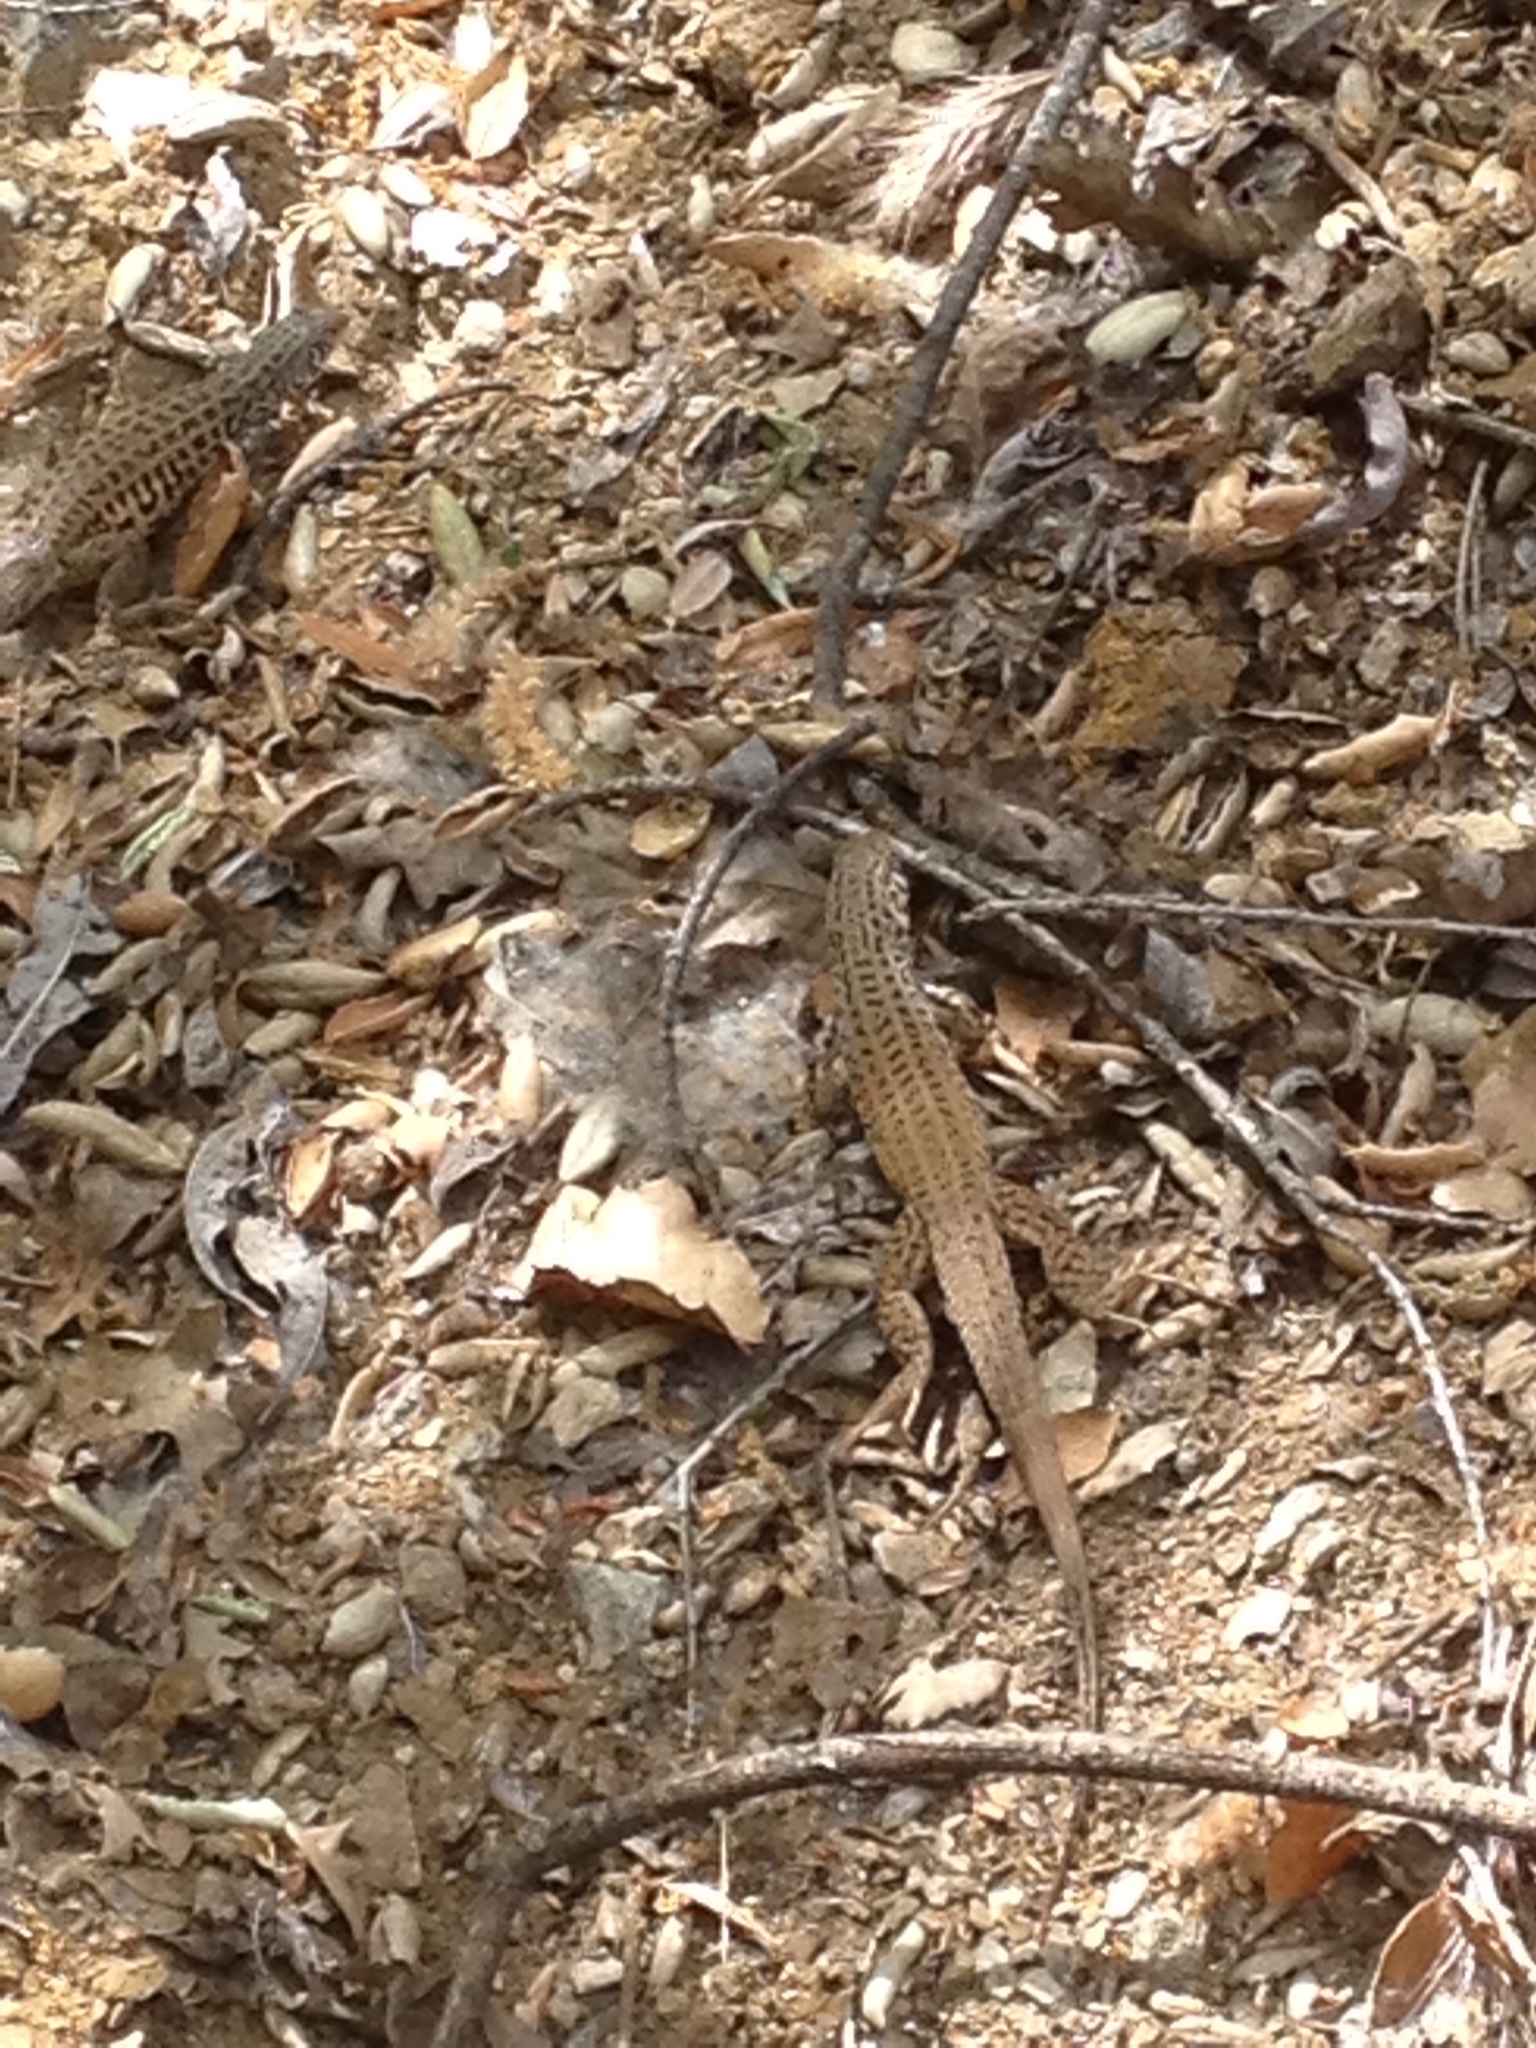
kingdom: Animalia
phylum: Chordata
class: Squamata
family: Teiidae
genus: Aspidoscelis
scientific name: Aspidoscelis tigris
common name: Tiger whiptail
